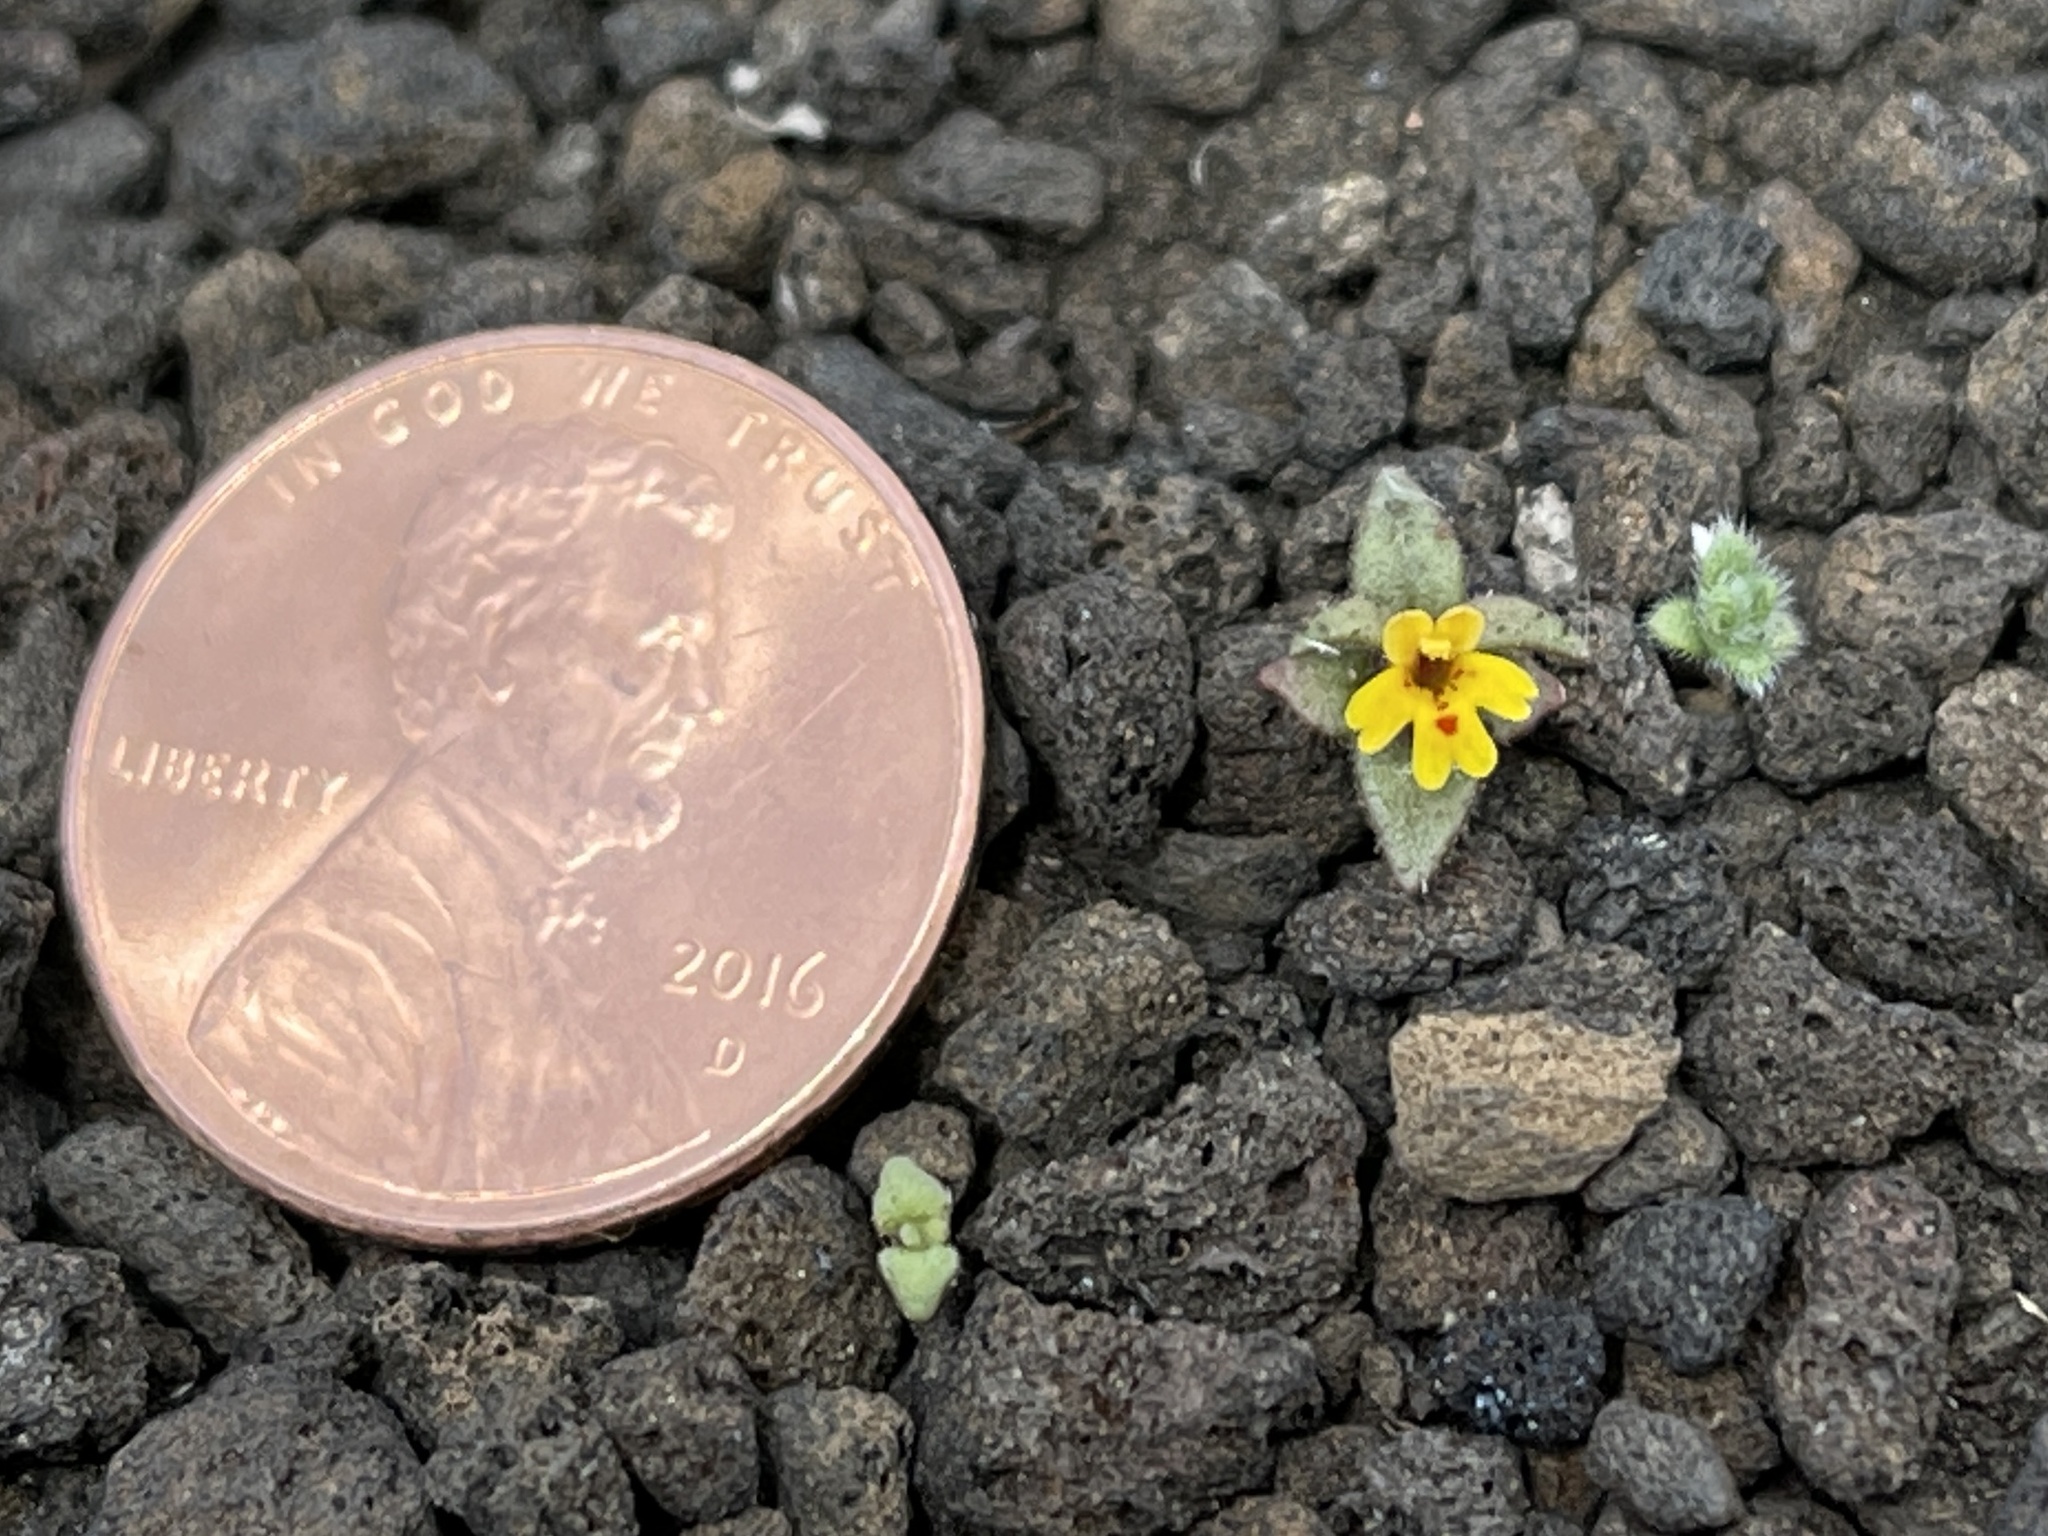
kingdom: Plantae
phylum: Tracheophyta
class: Magnoliopsida
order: Lamiales
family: Phrymaceae
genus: Erythranthe
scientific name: Erythranthe suksdorfii
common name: Suksdorf's monkeyflower
